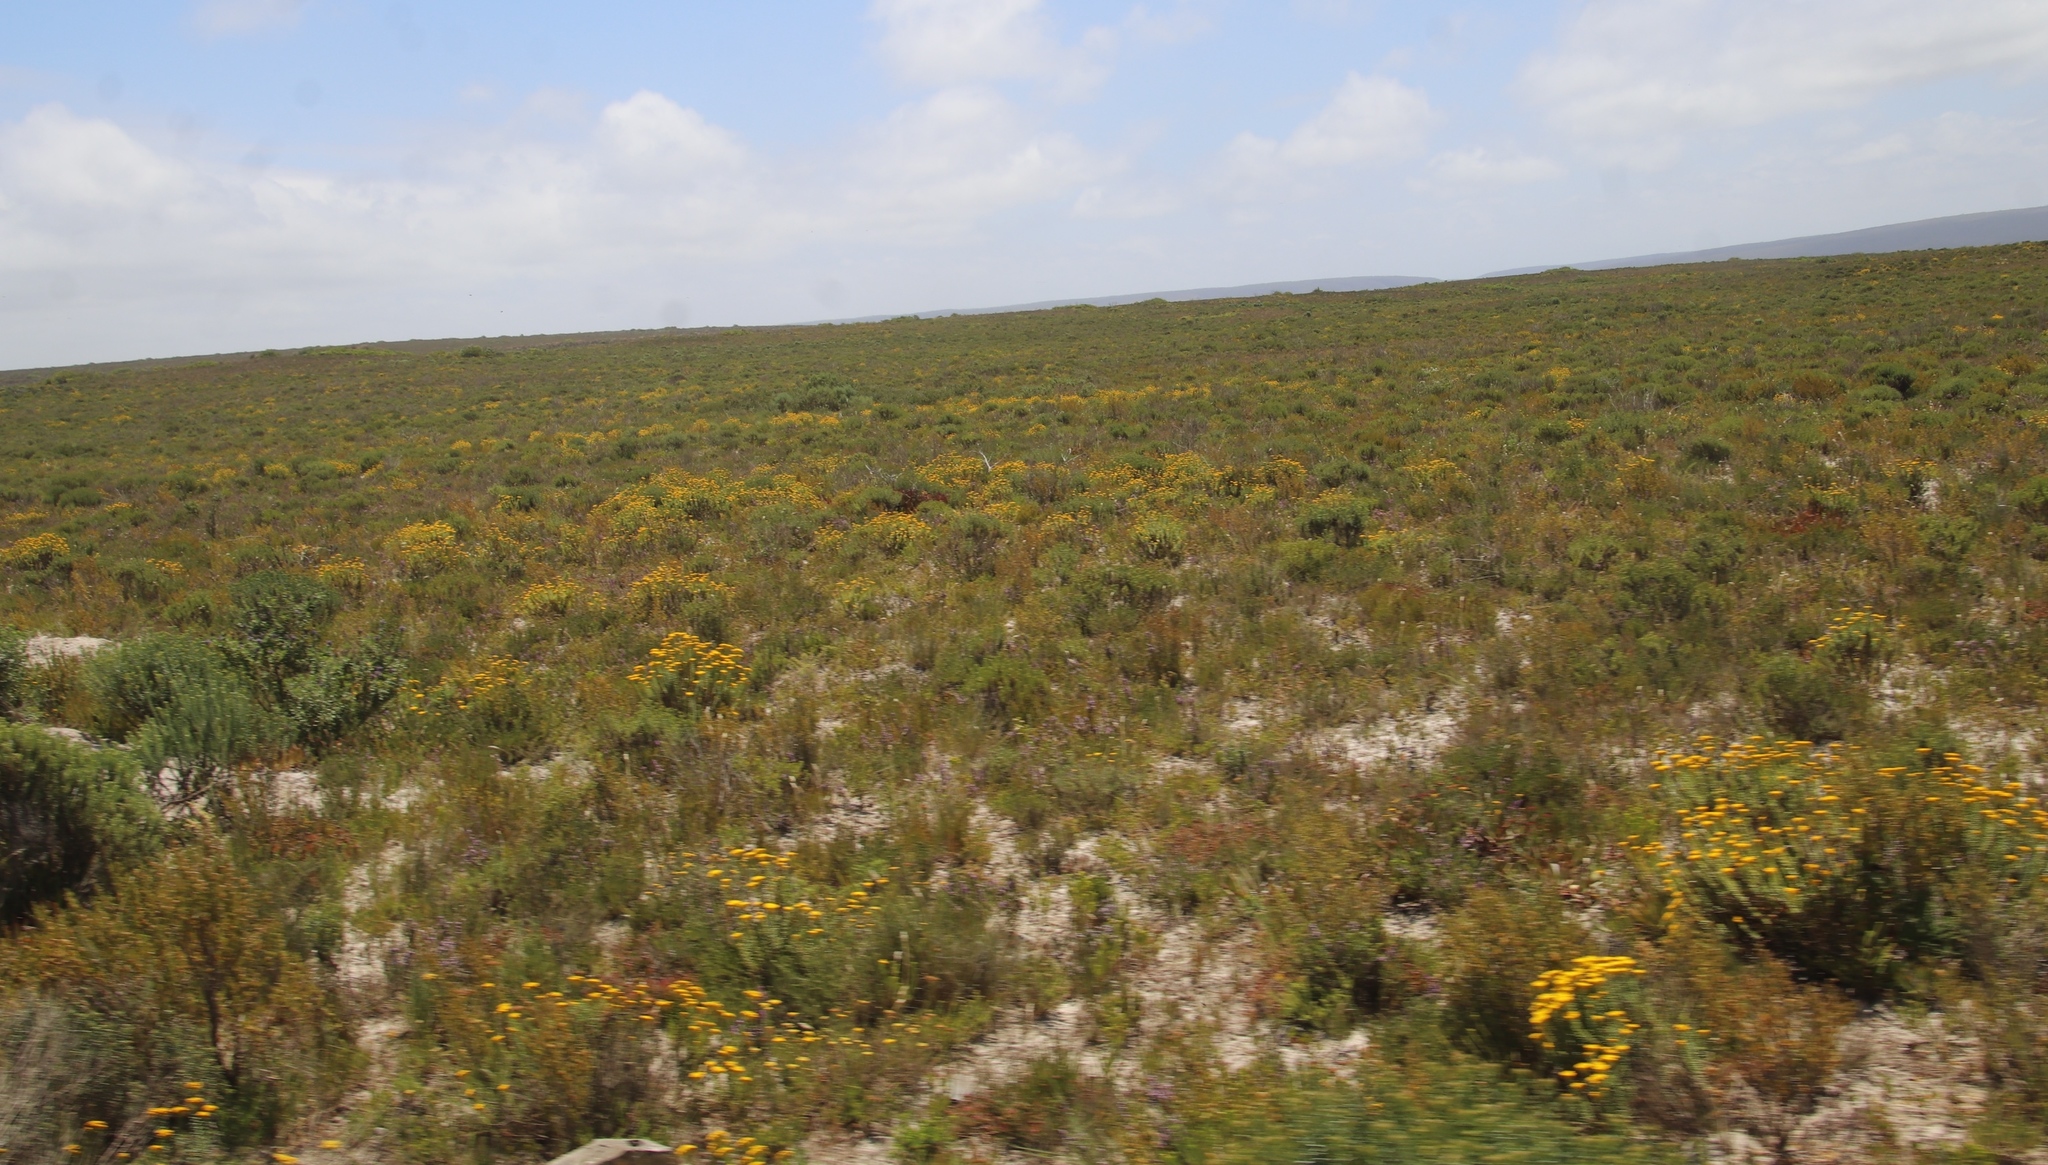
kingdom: Plantae
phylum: Tracheophyta
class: Magnoliopsida
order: Asterales
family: Asteraceae
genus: Athanasia
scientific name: Athanasia quinquedentata
